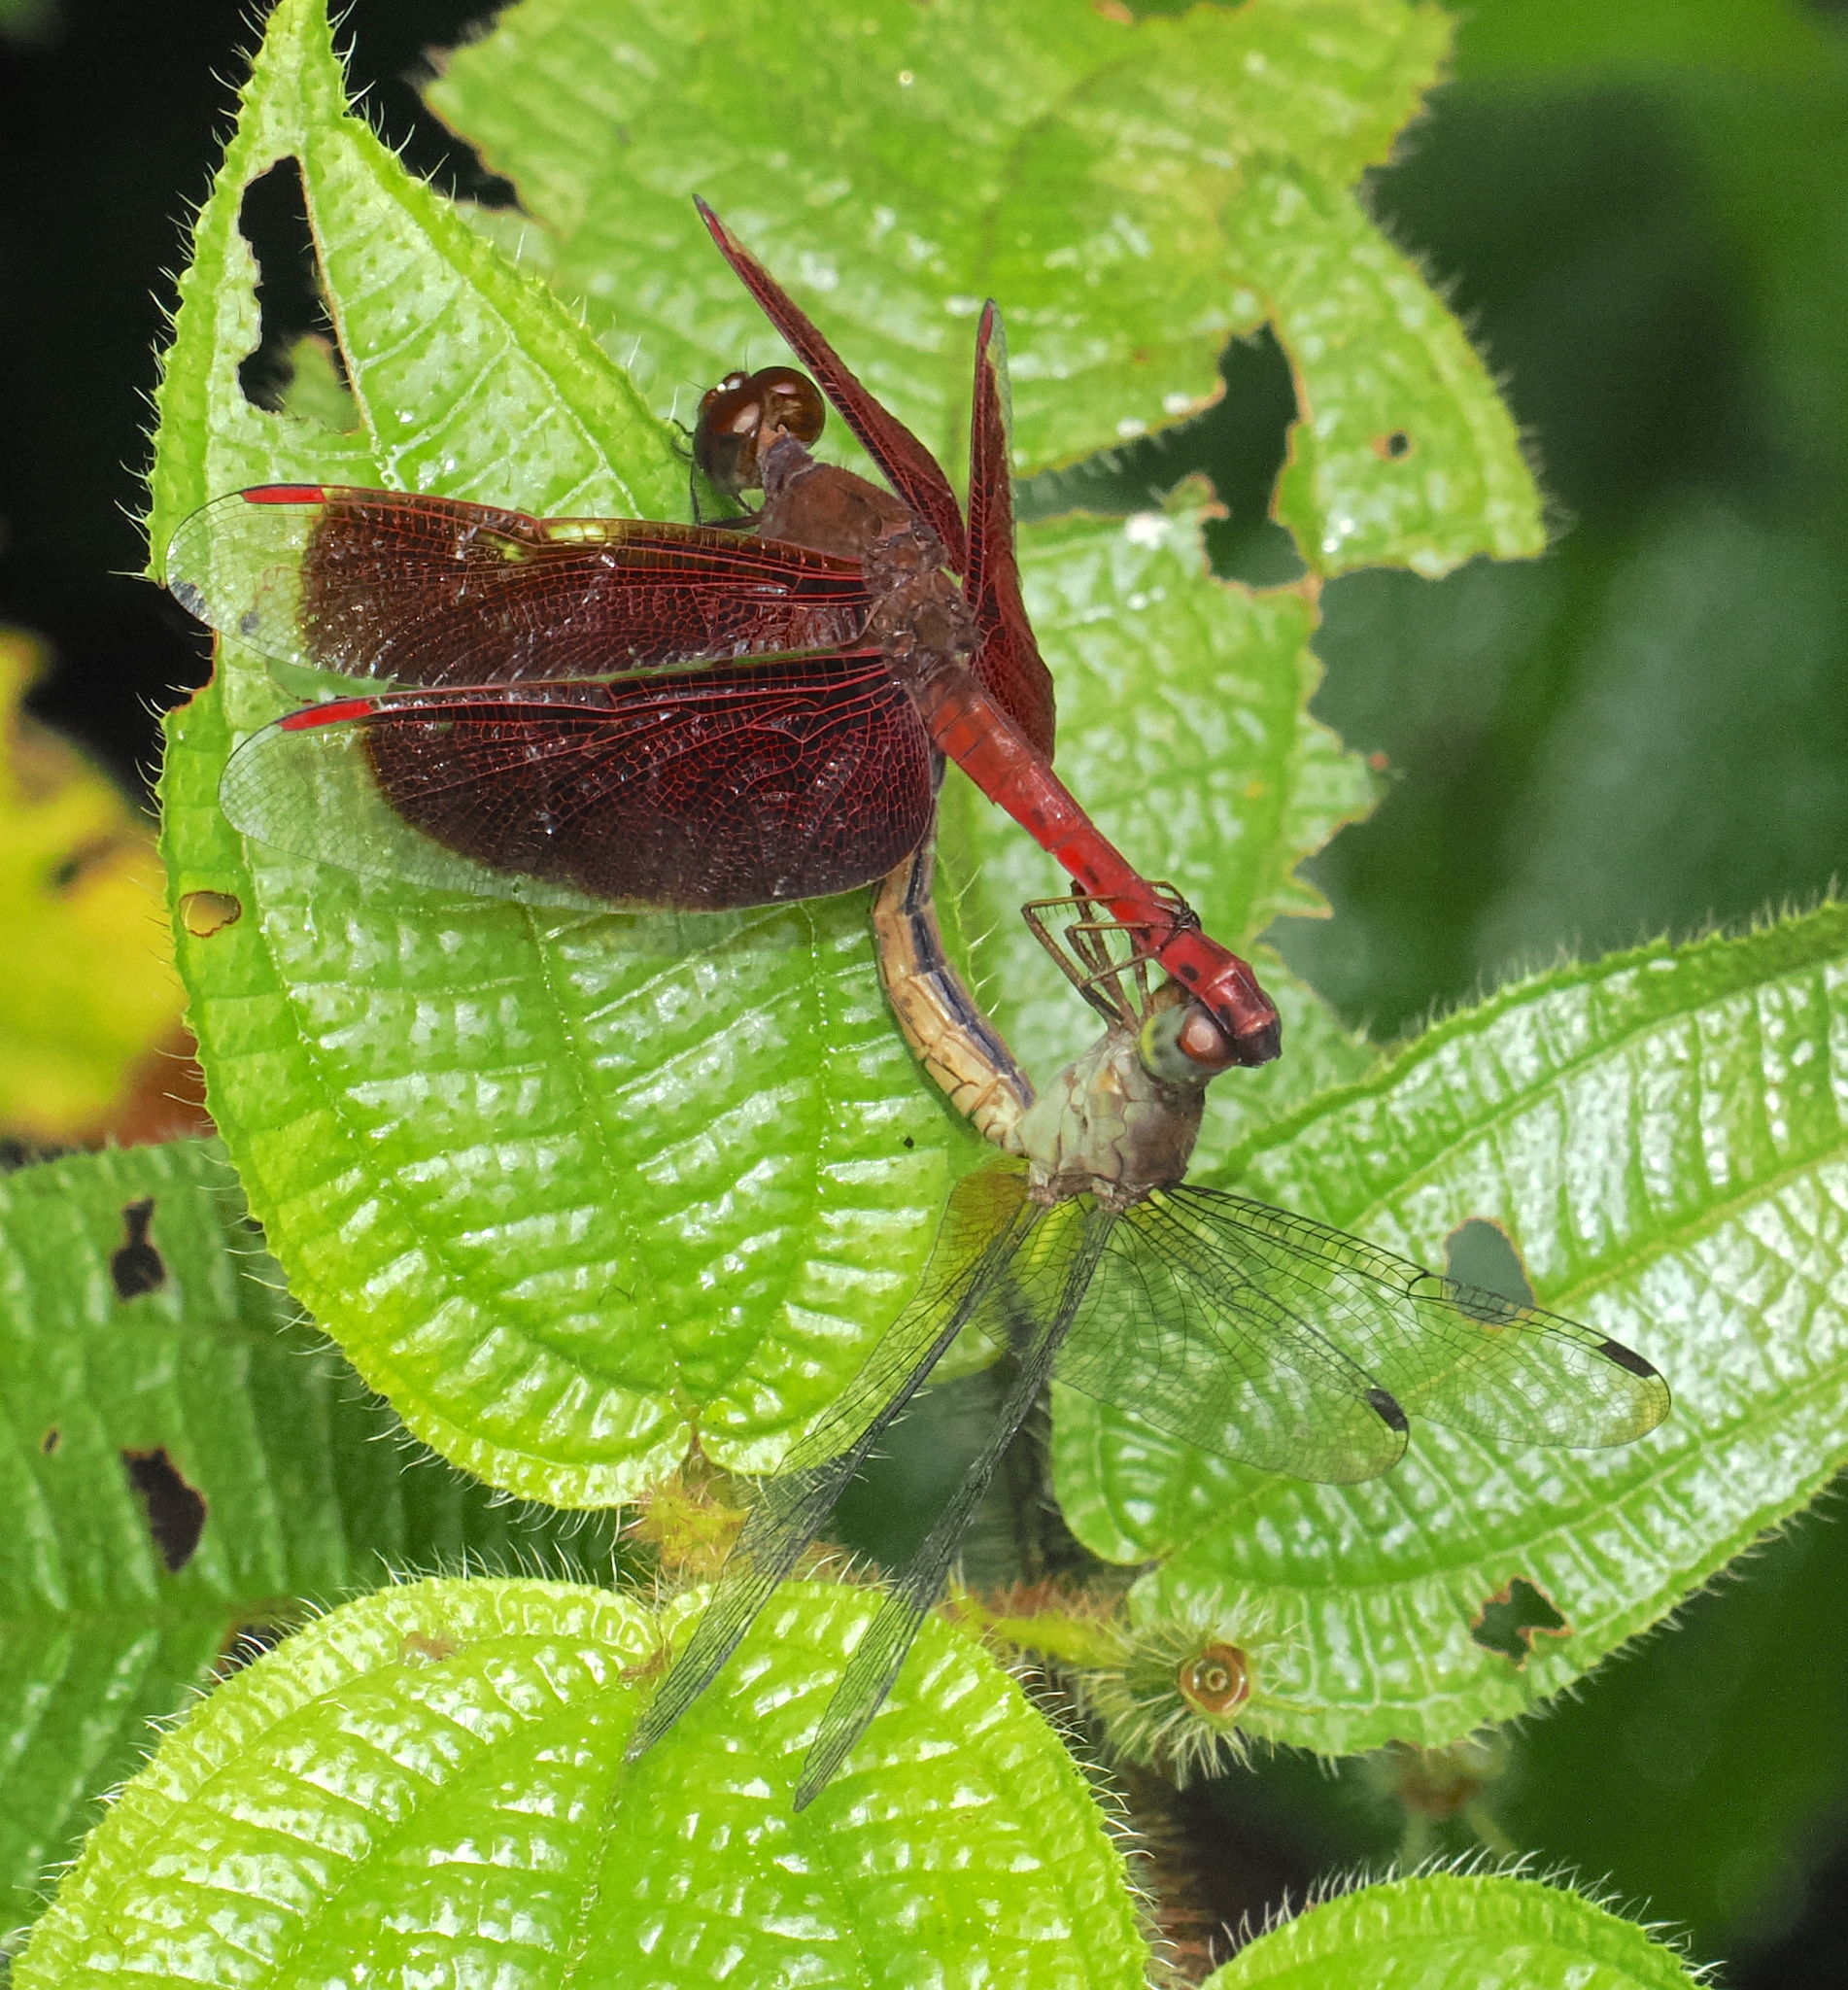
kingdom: Animalia
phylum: Arthropoda
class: Insecta
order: Odonata
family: Libellulidae
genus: Neurothemis
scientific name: Neurothemis fluctuans
